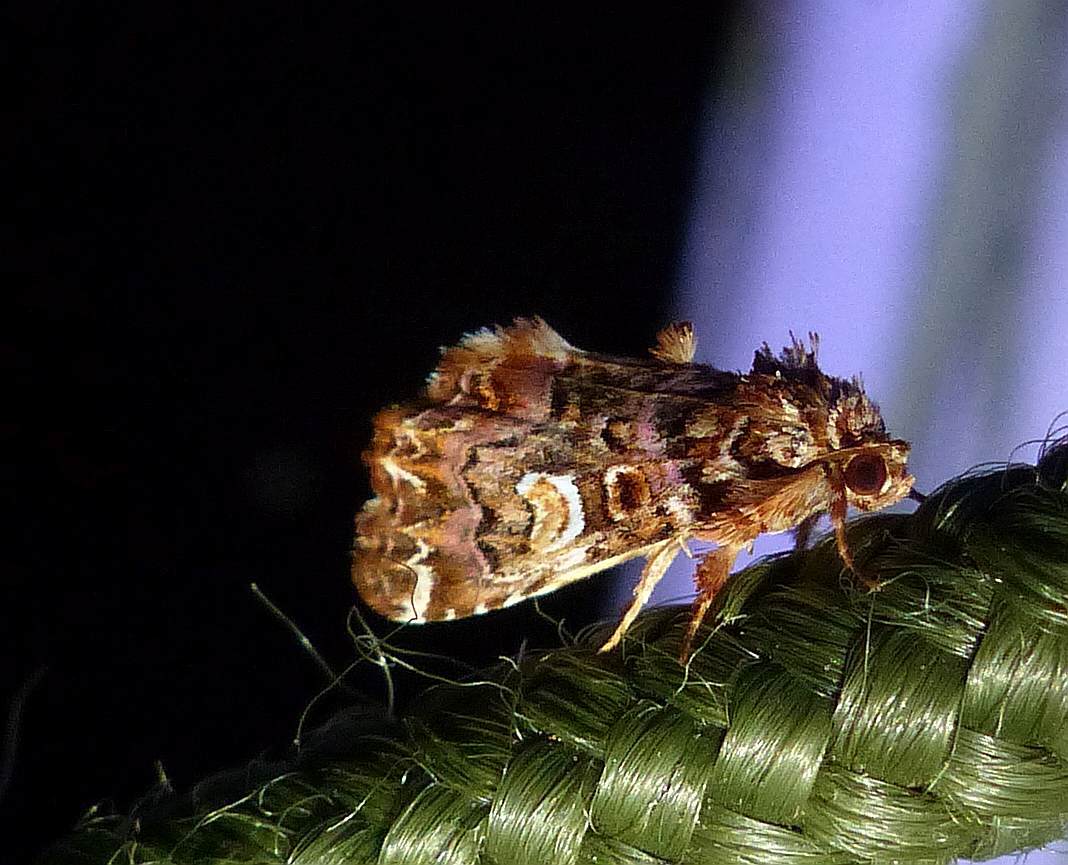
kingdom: Animalia
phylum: Arthropoda
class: Insecta
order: Lepidoptera
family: Noctuidae
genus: Callopistria
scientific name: Callopistria mollissima
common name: Pink-shaded fern moth
